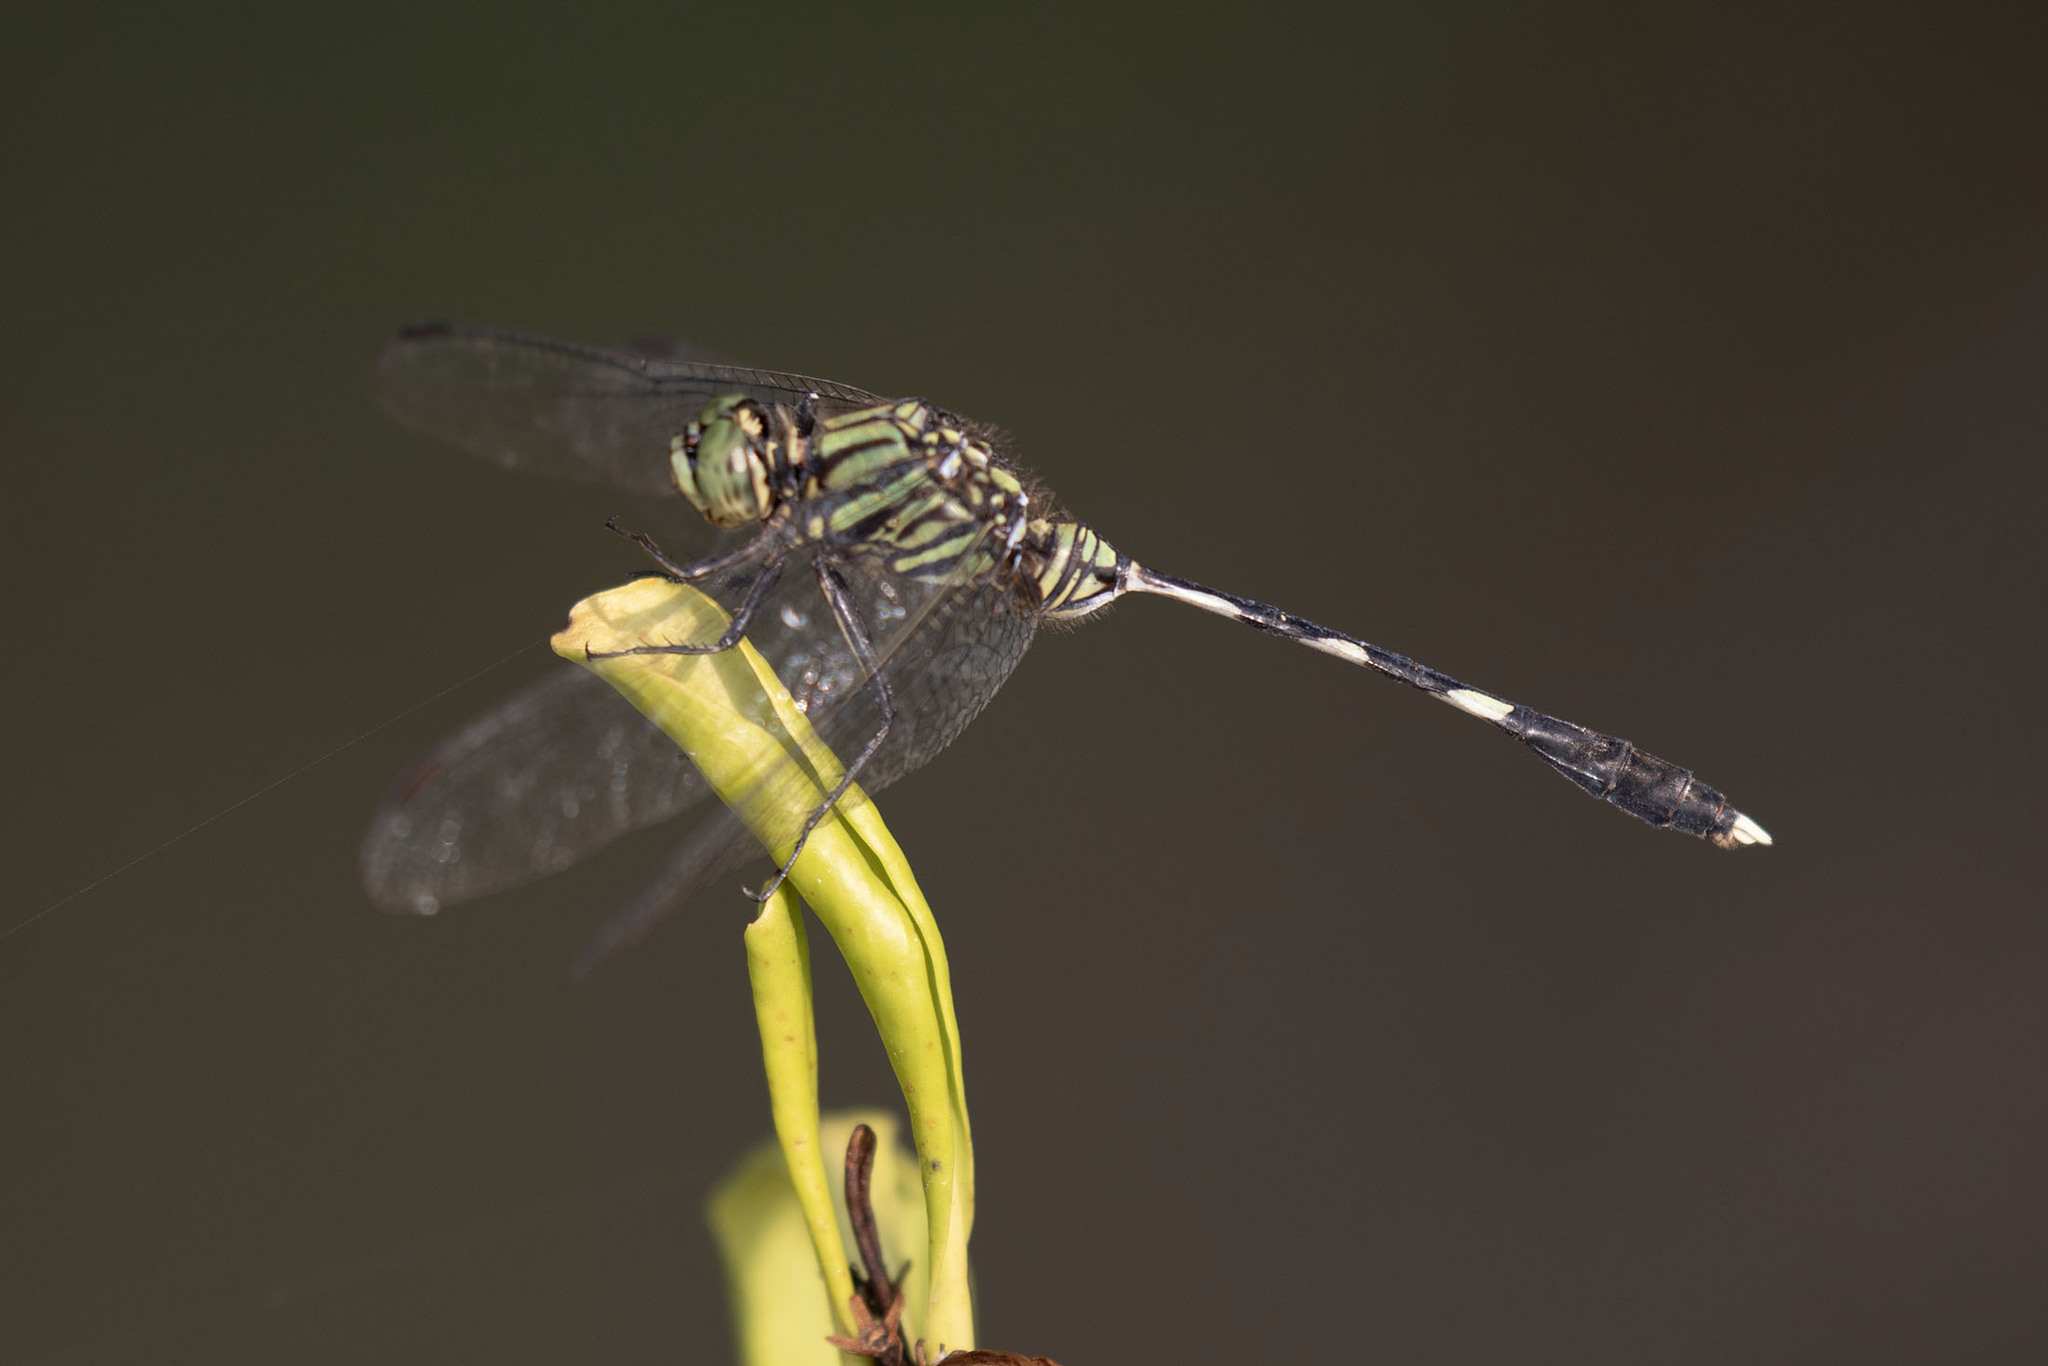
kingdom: Animalia
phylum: Arthropoda
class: Insecta
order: Odonata
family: Libellulidae
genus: Orthetrum
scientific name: Orthetrum sabina
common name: Slender skimmer
